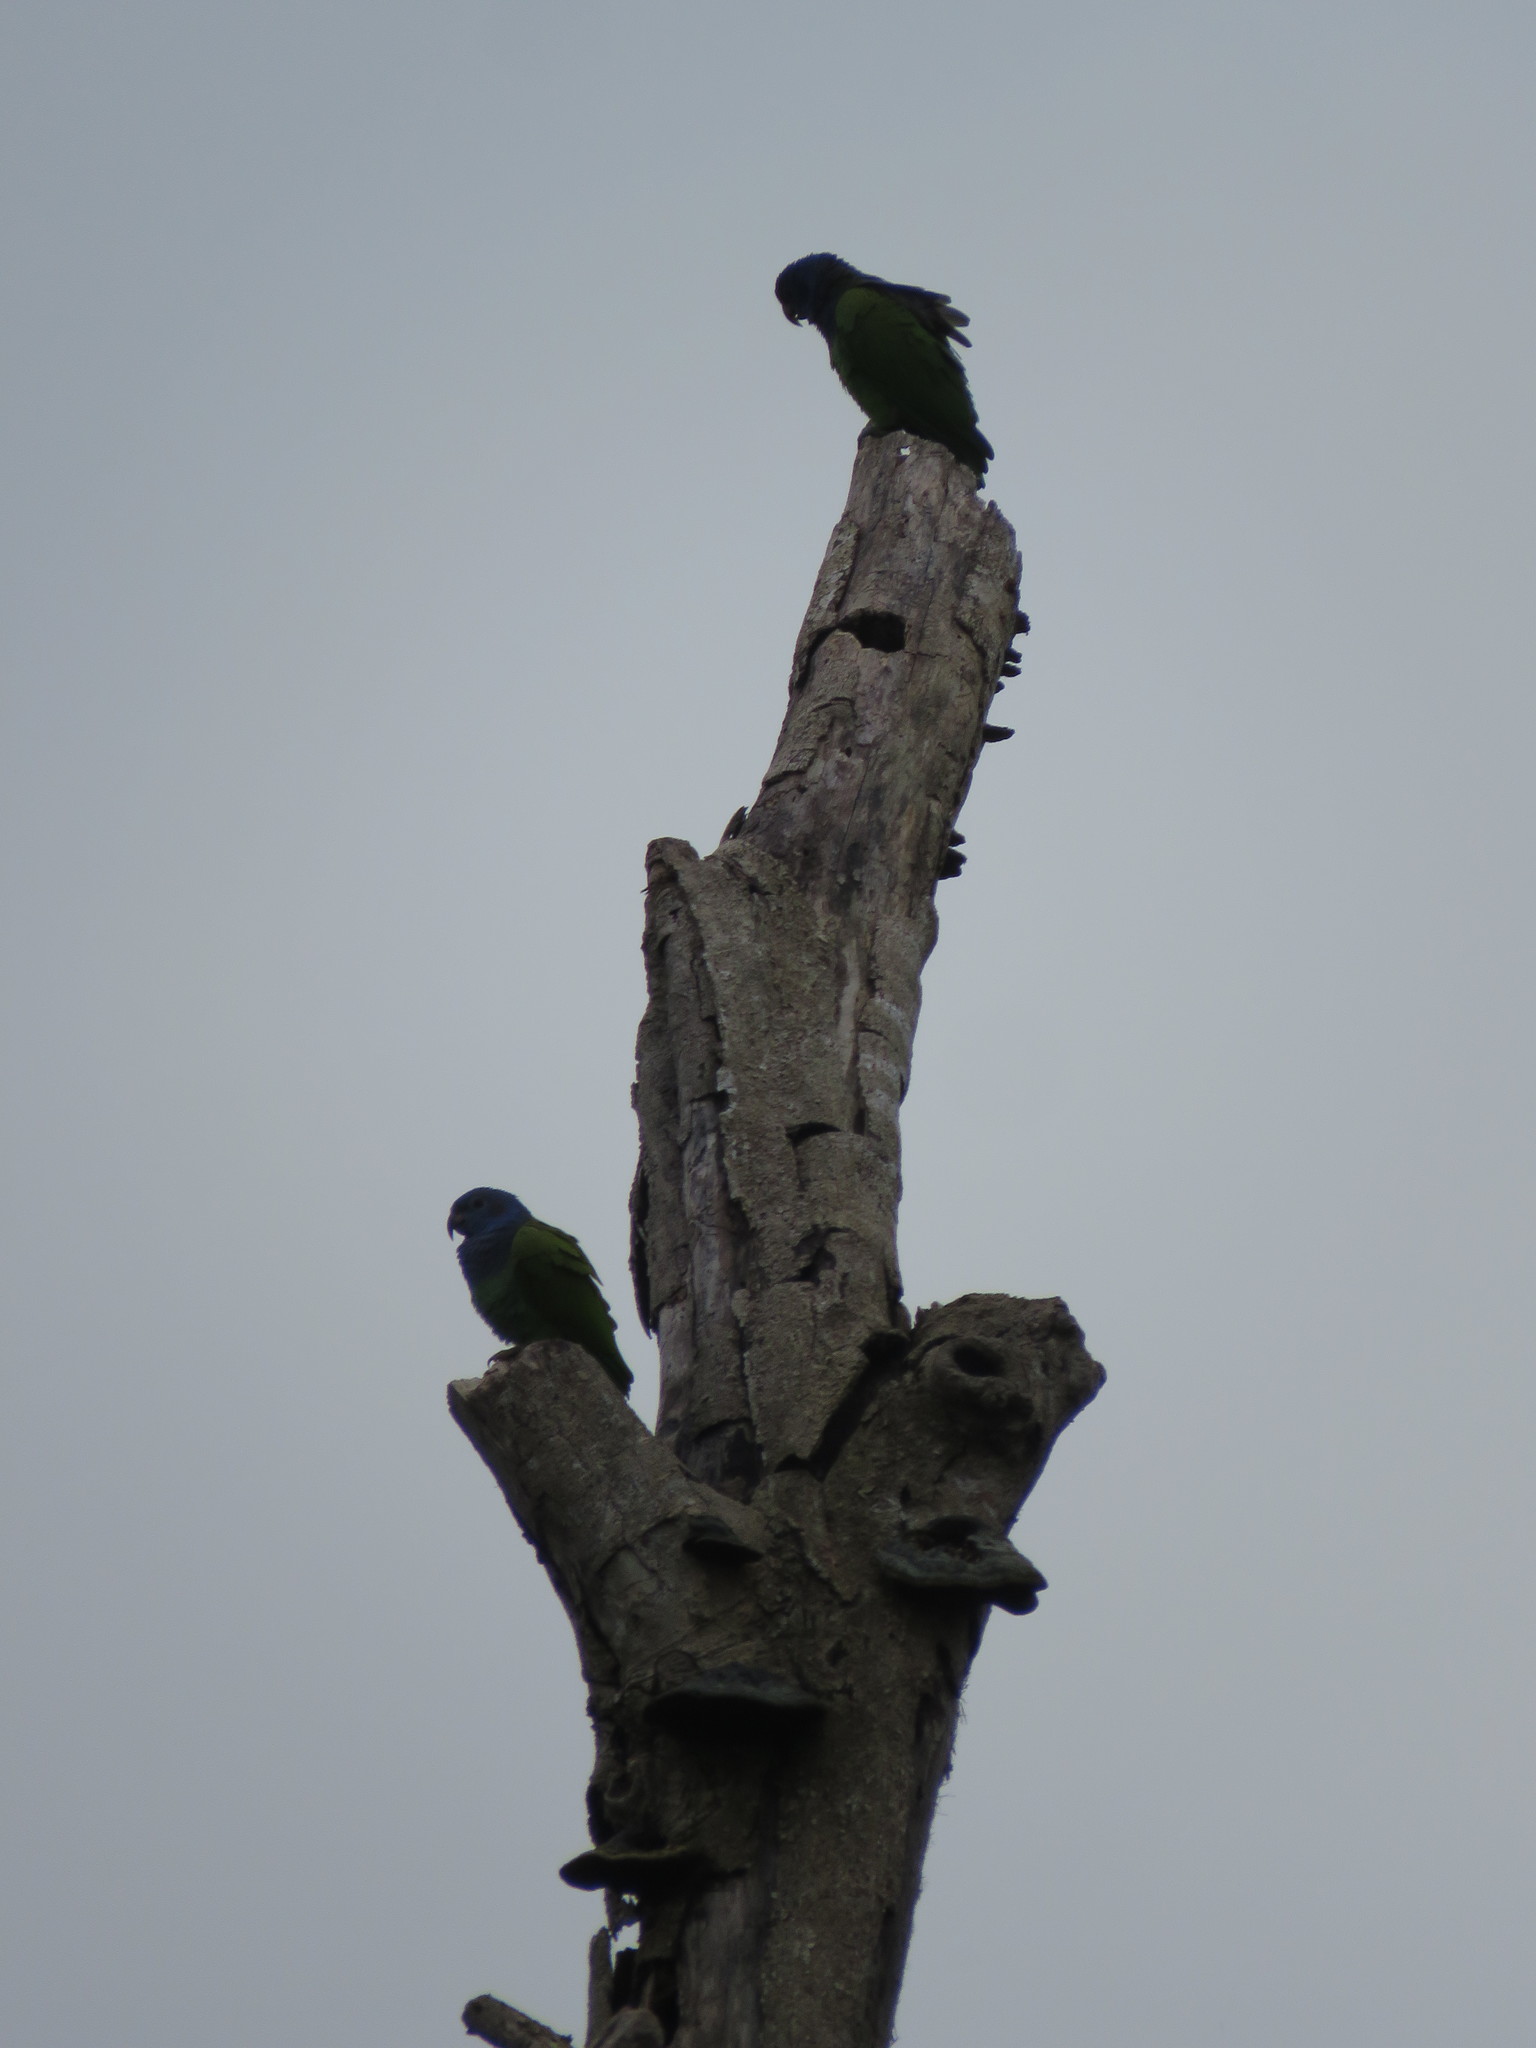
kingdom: Animalia
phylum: Chordata
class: Aves
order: Psittaciformes
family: Psittacidae
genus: Pionus
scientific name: Pionus menstruus
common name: Blue-headed parrot
